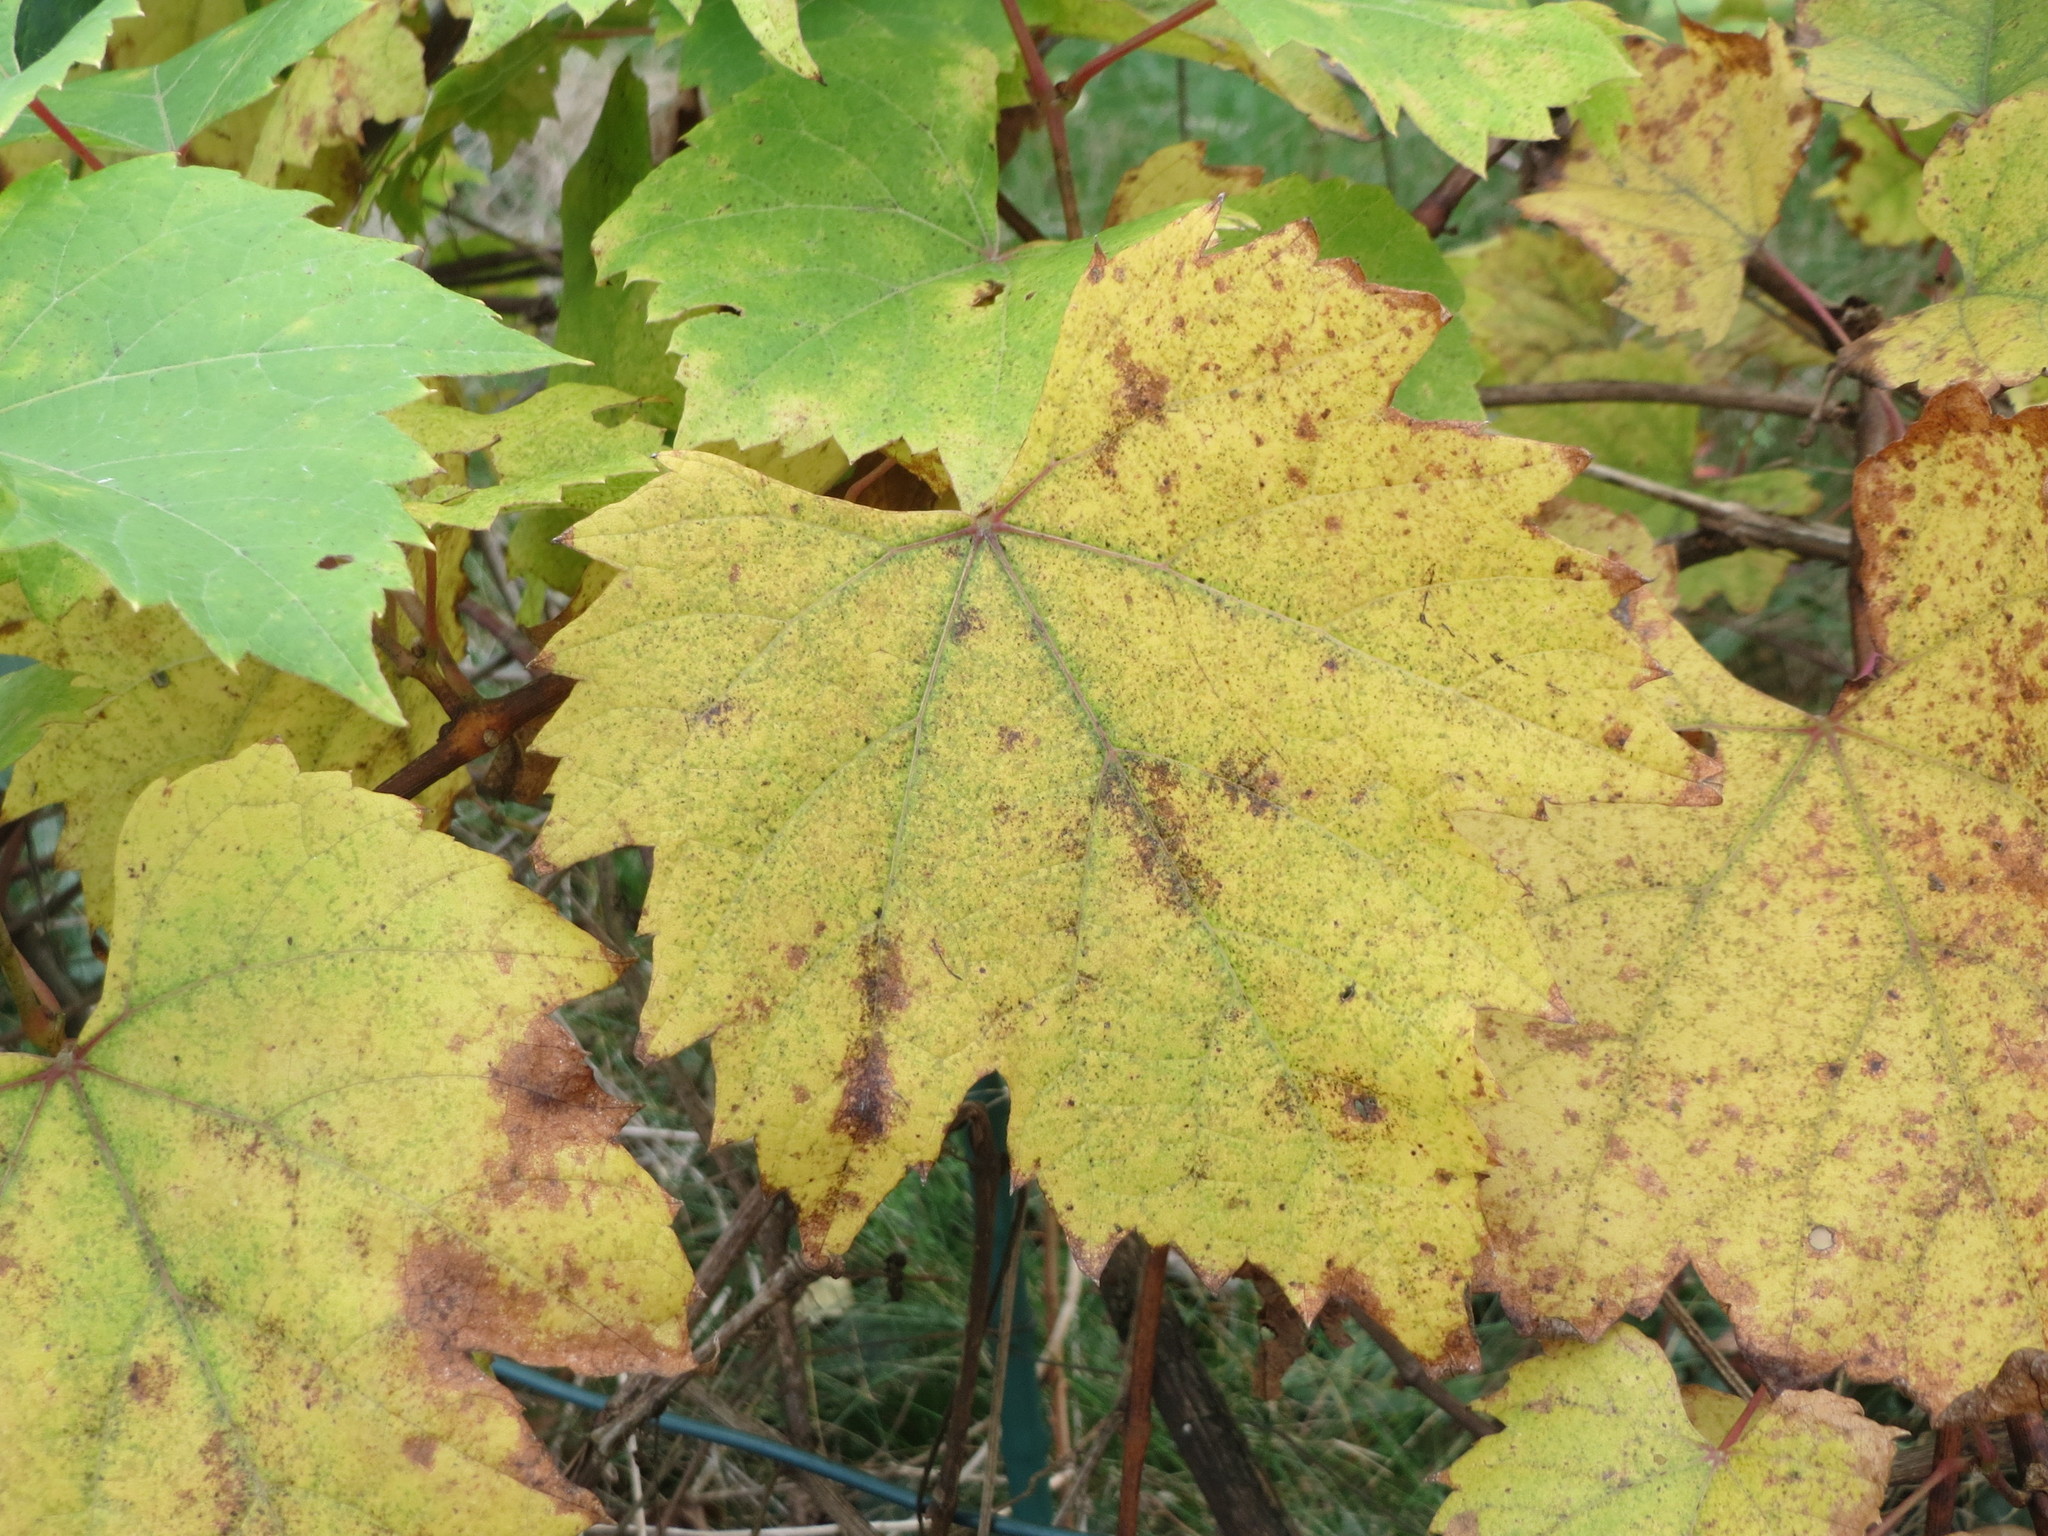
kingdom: Plantae
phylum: Tracheophyta
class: Magnoliopsida
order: Vitales
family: Vitaceae
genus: Vitis
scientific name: Vitis vinifera
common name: Grape-vine
